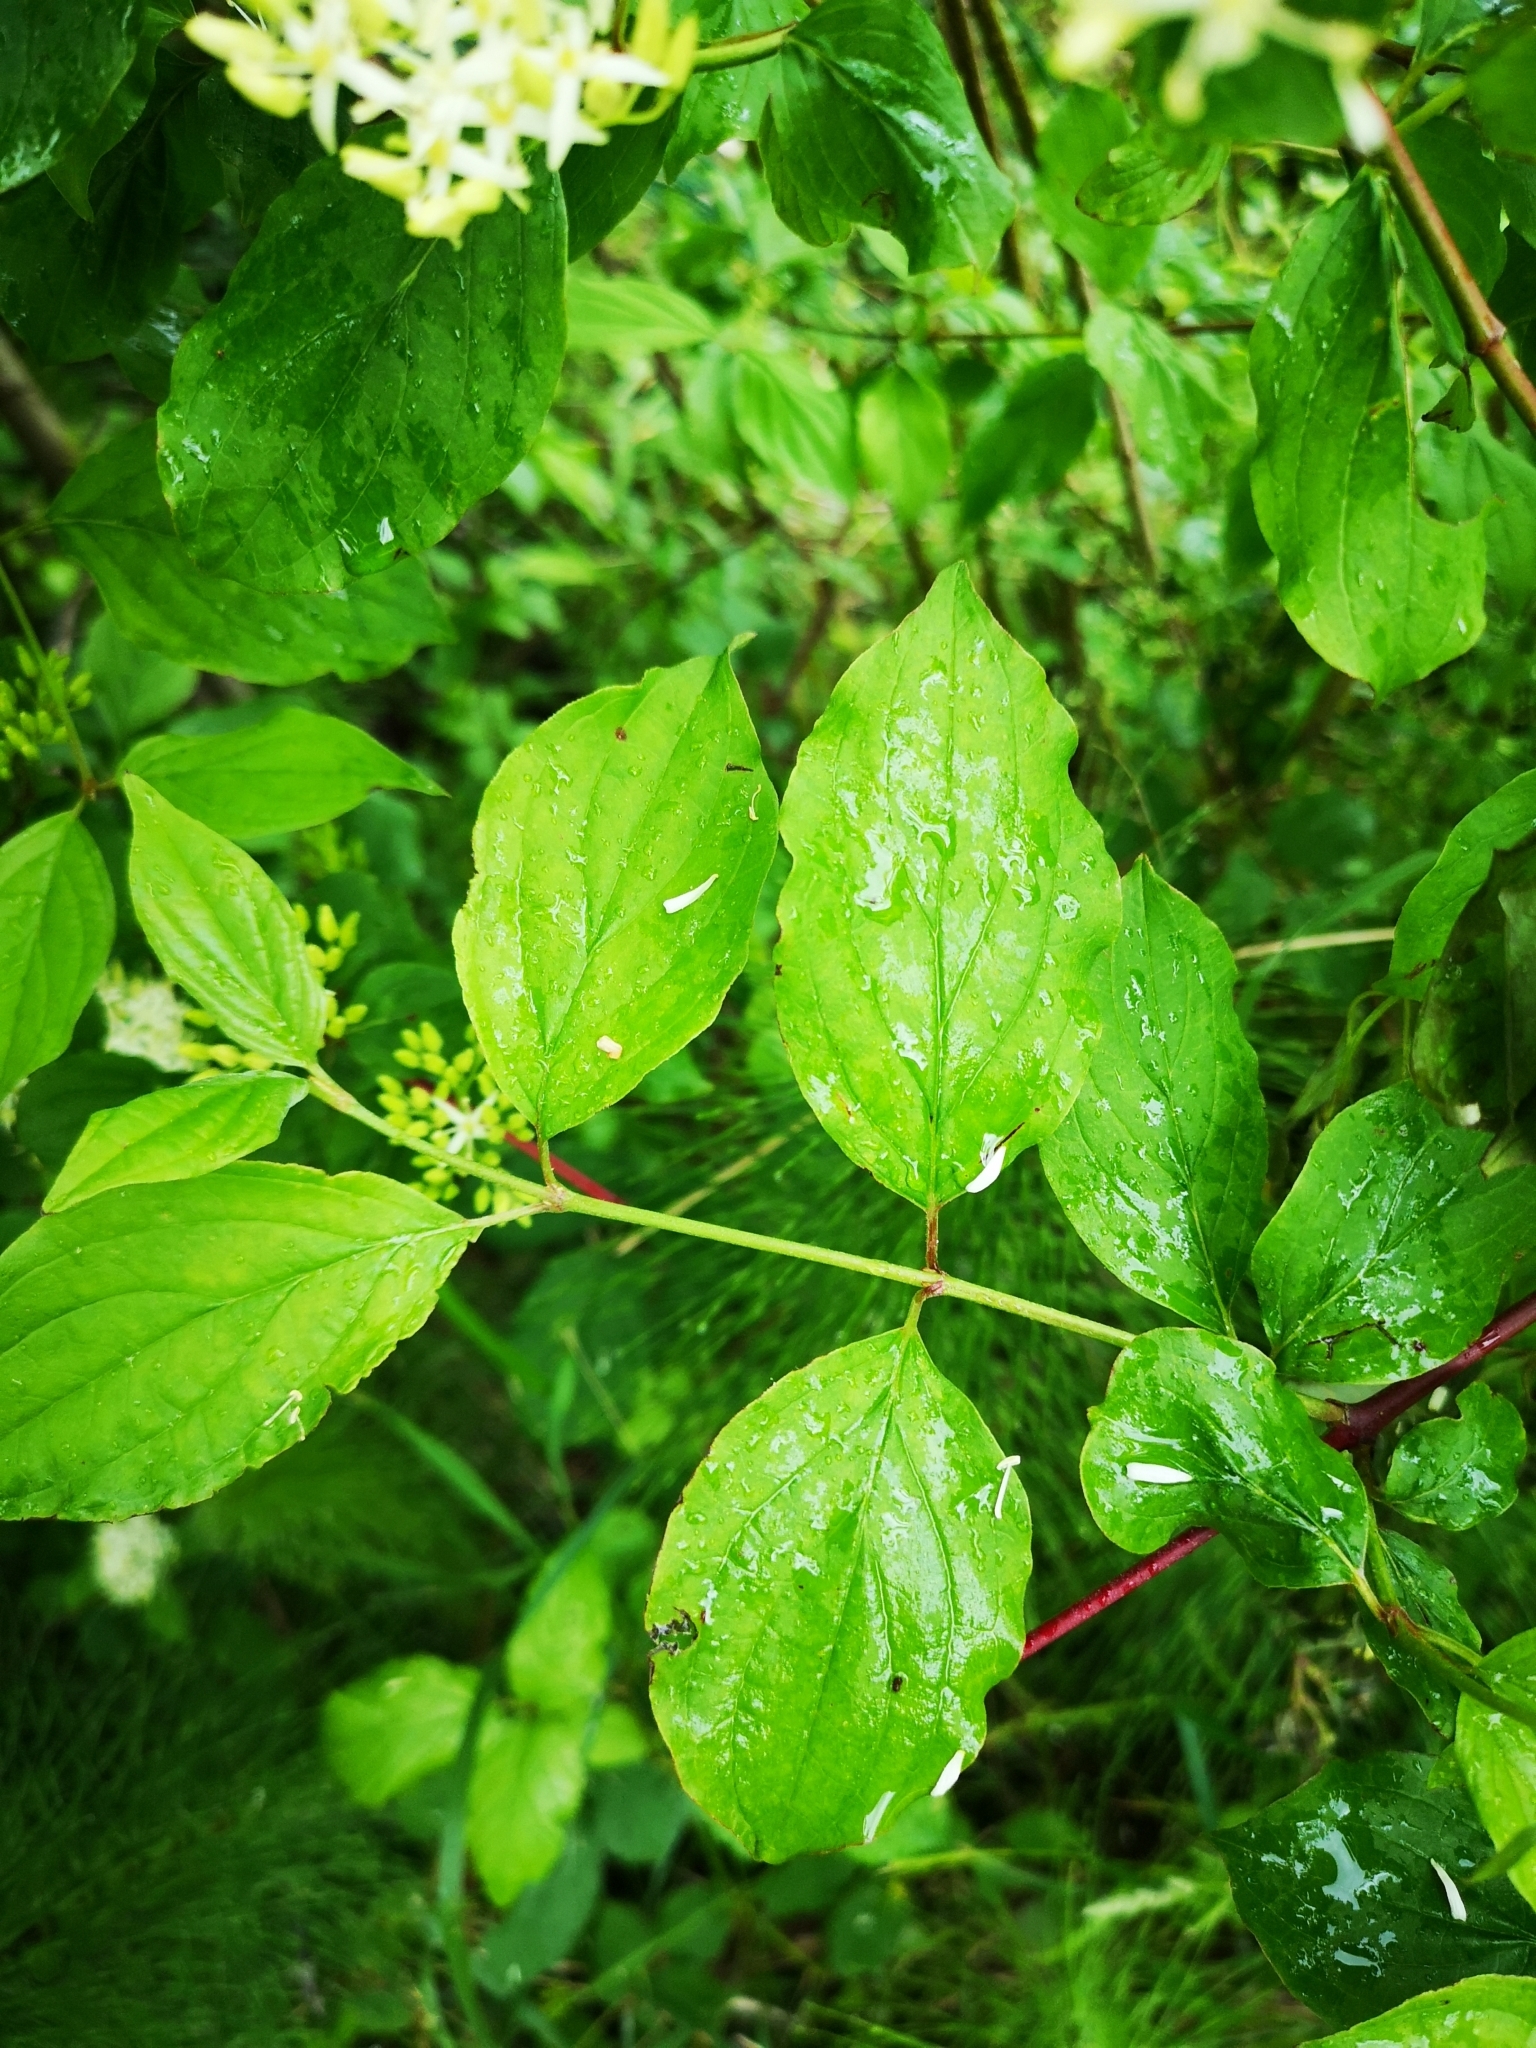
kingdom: Plantae
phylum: Tracheophyta
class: Magnoliopsida
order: Cornales
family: Cornaceae
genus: Cornus
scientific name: Cornus sanguinea
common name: Dogwood
